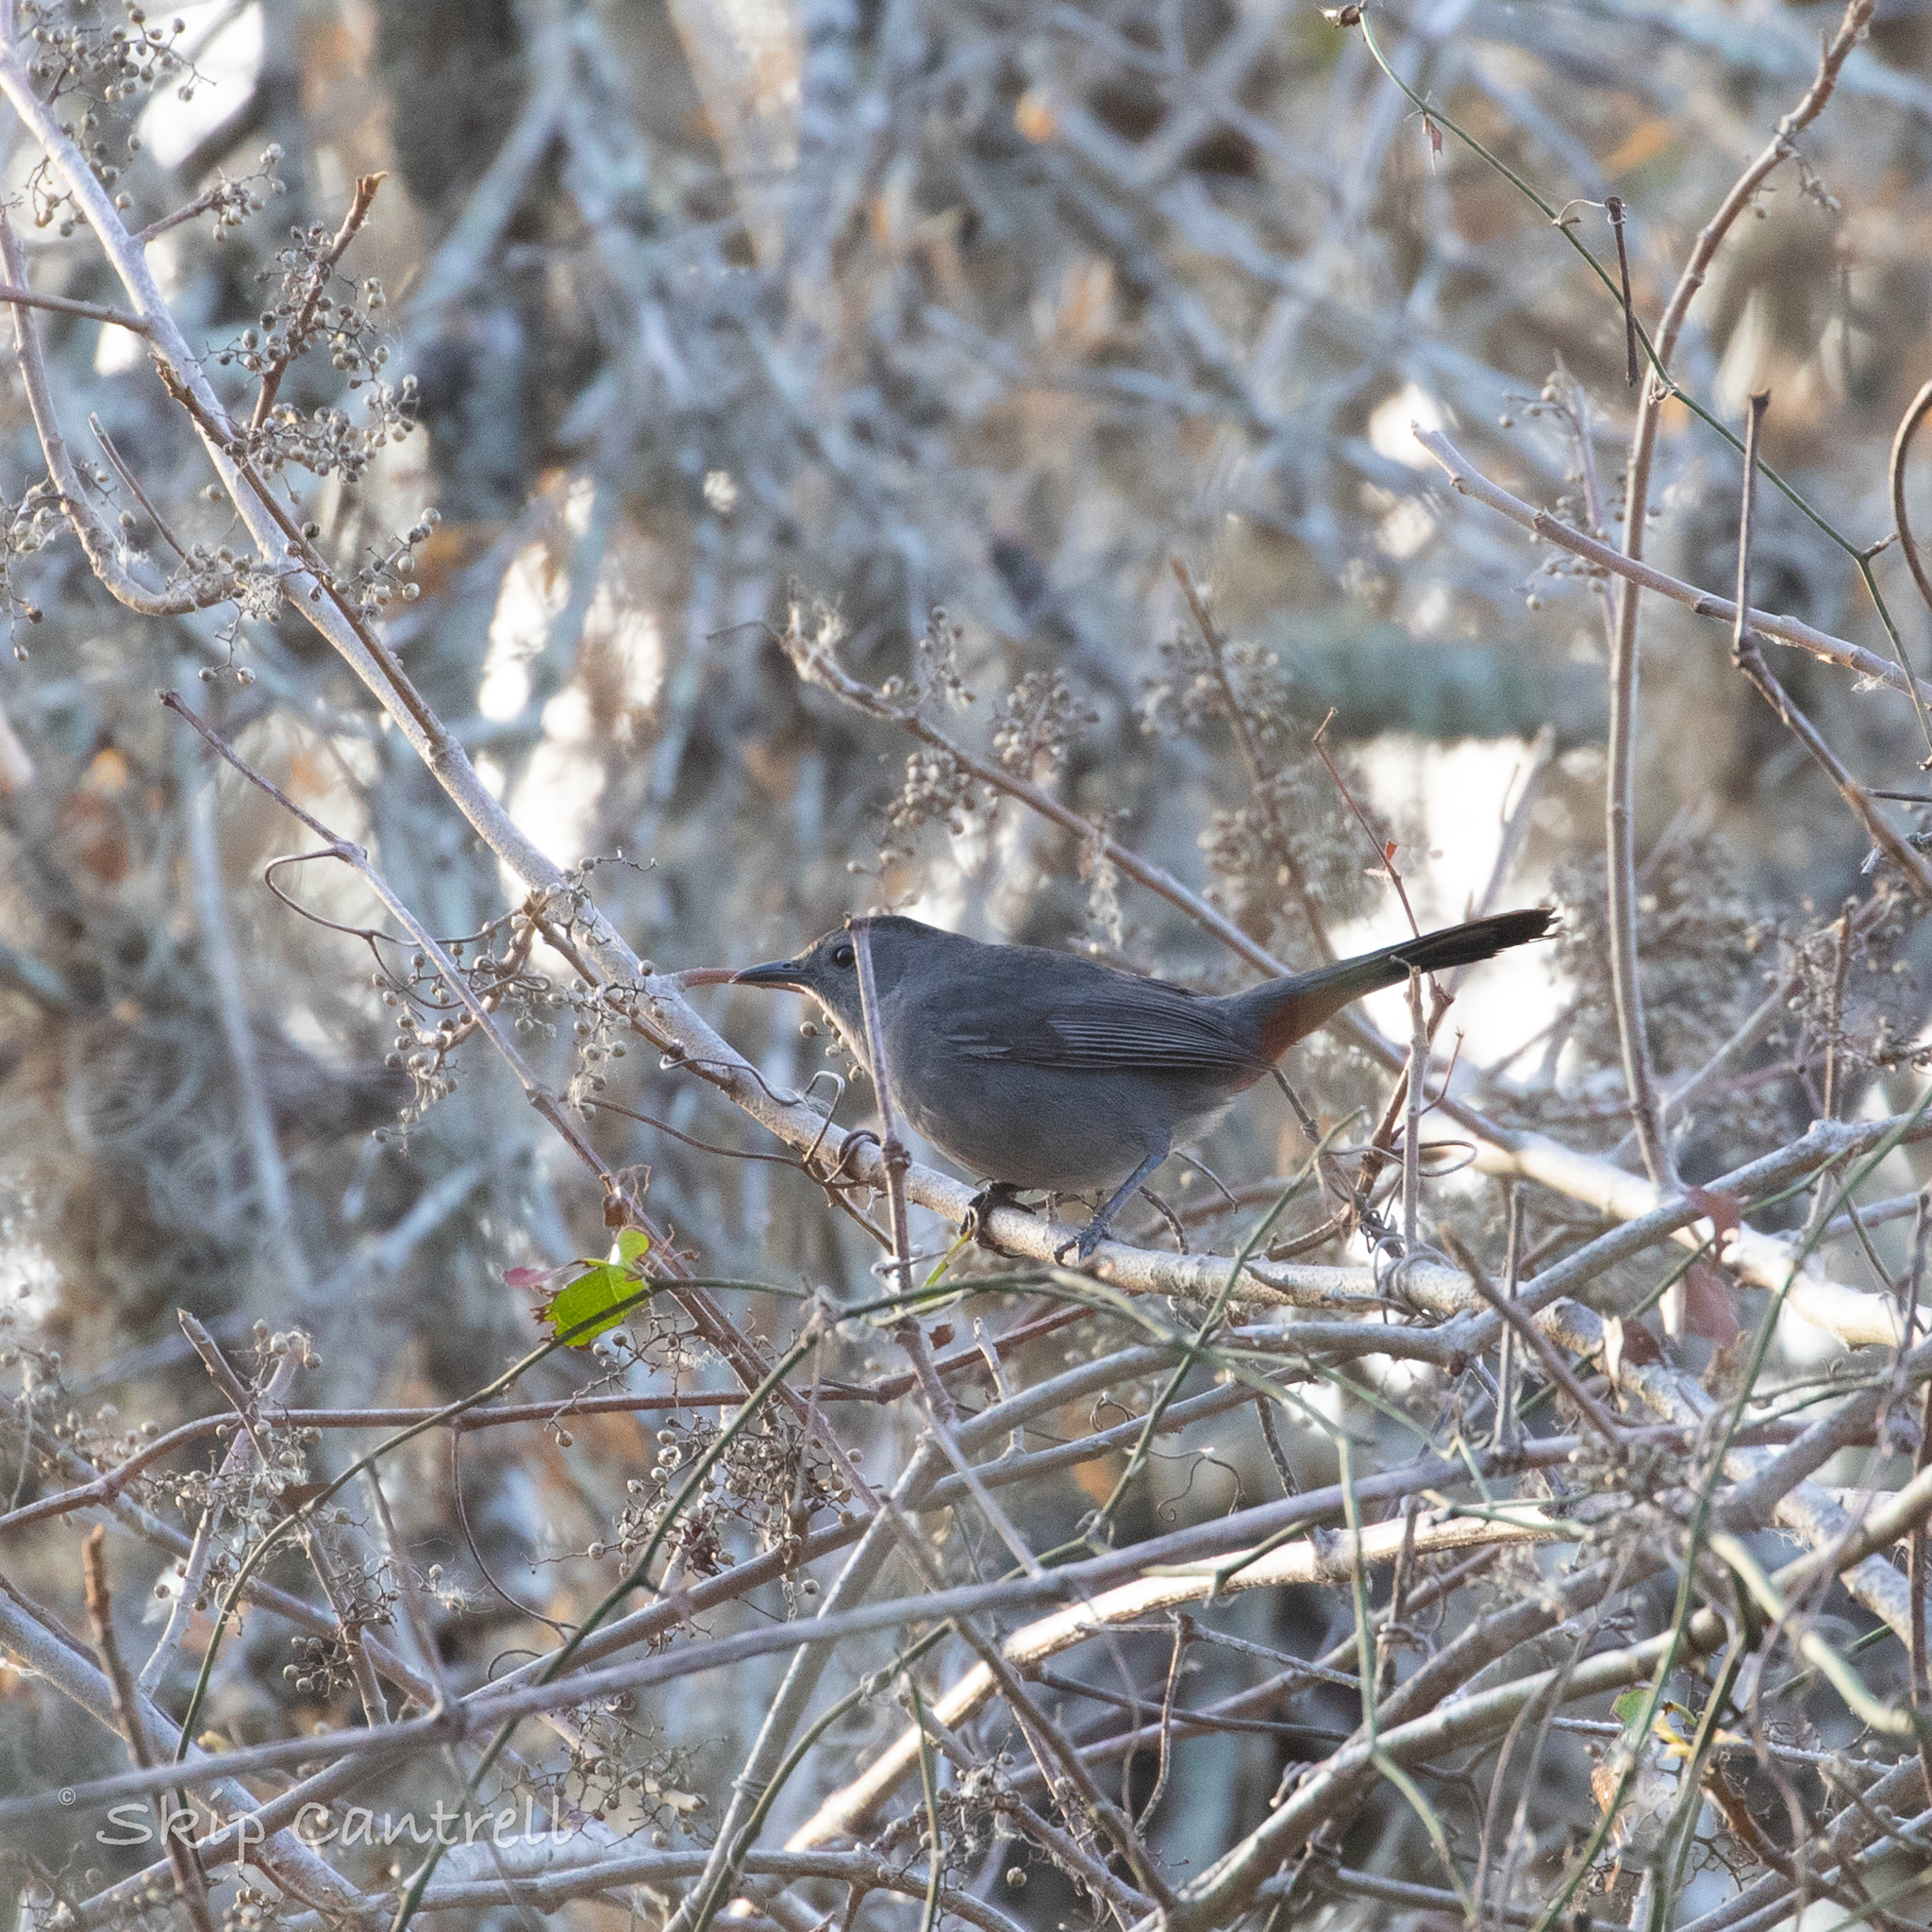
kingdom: Animalia
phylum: Chordata
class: Aves
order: Passeriformes
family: Mimidae
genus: Dumetella
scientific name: Dumetella carolinensis
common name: Gray catbird
